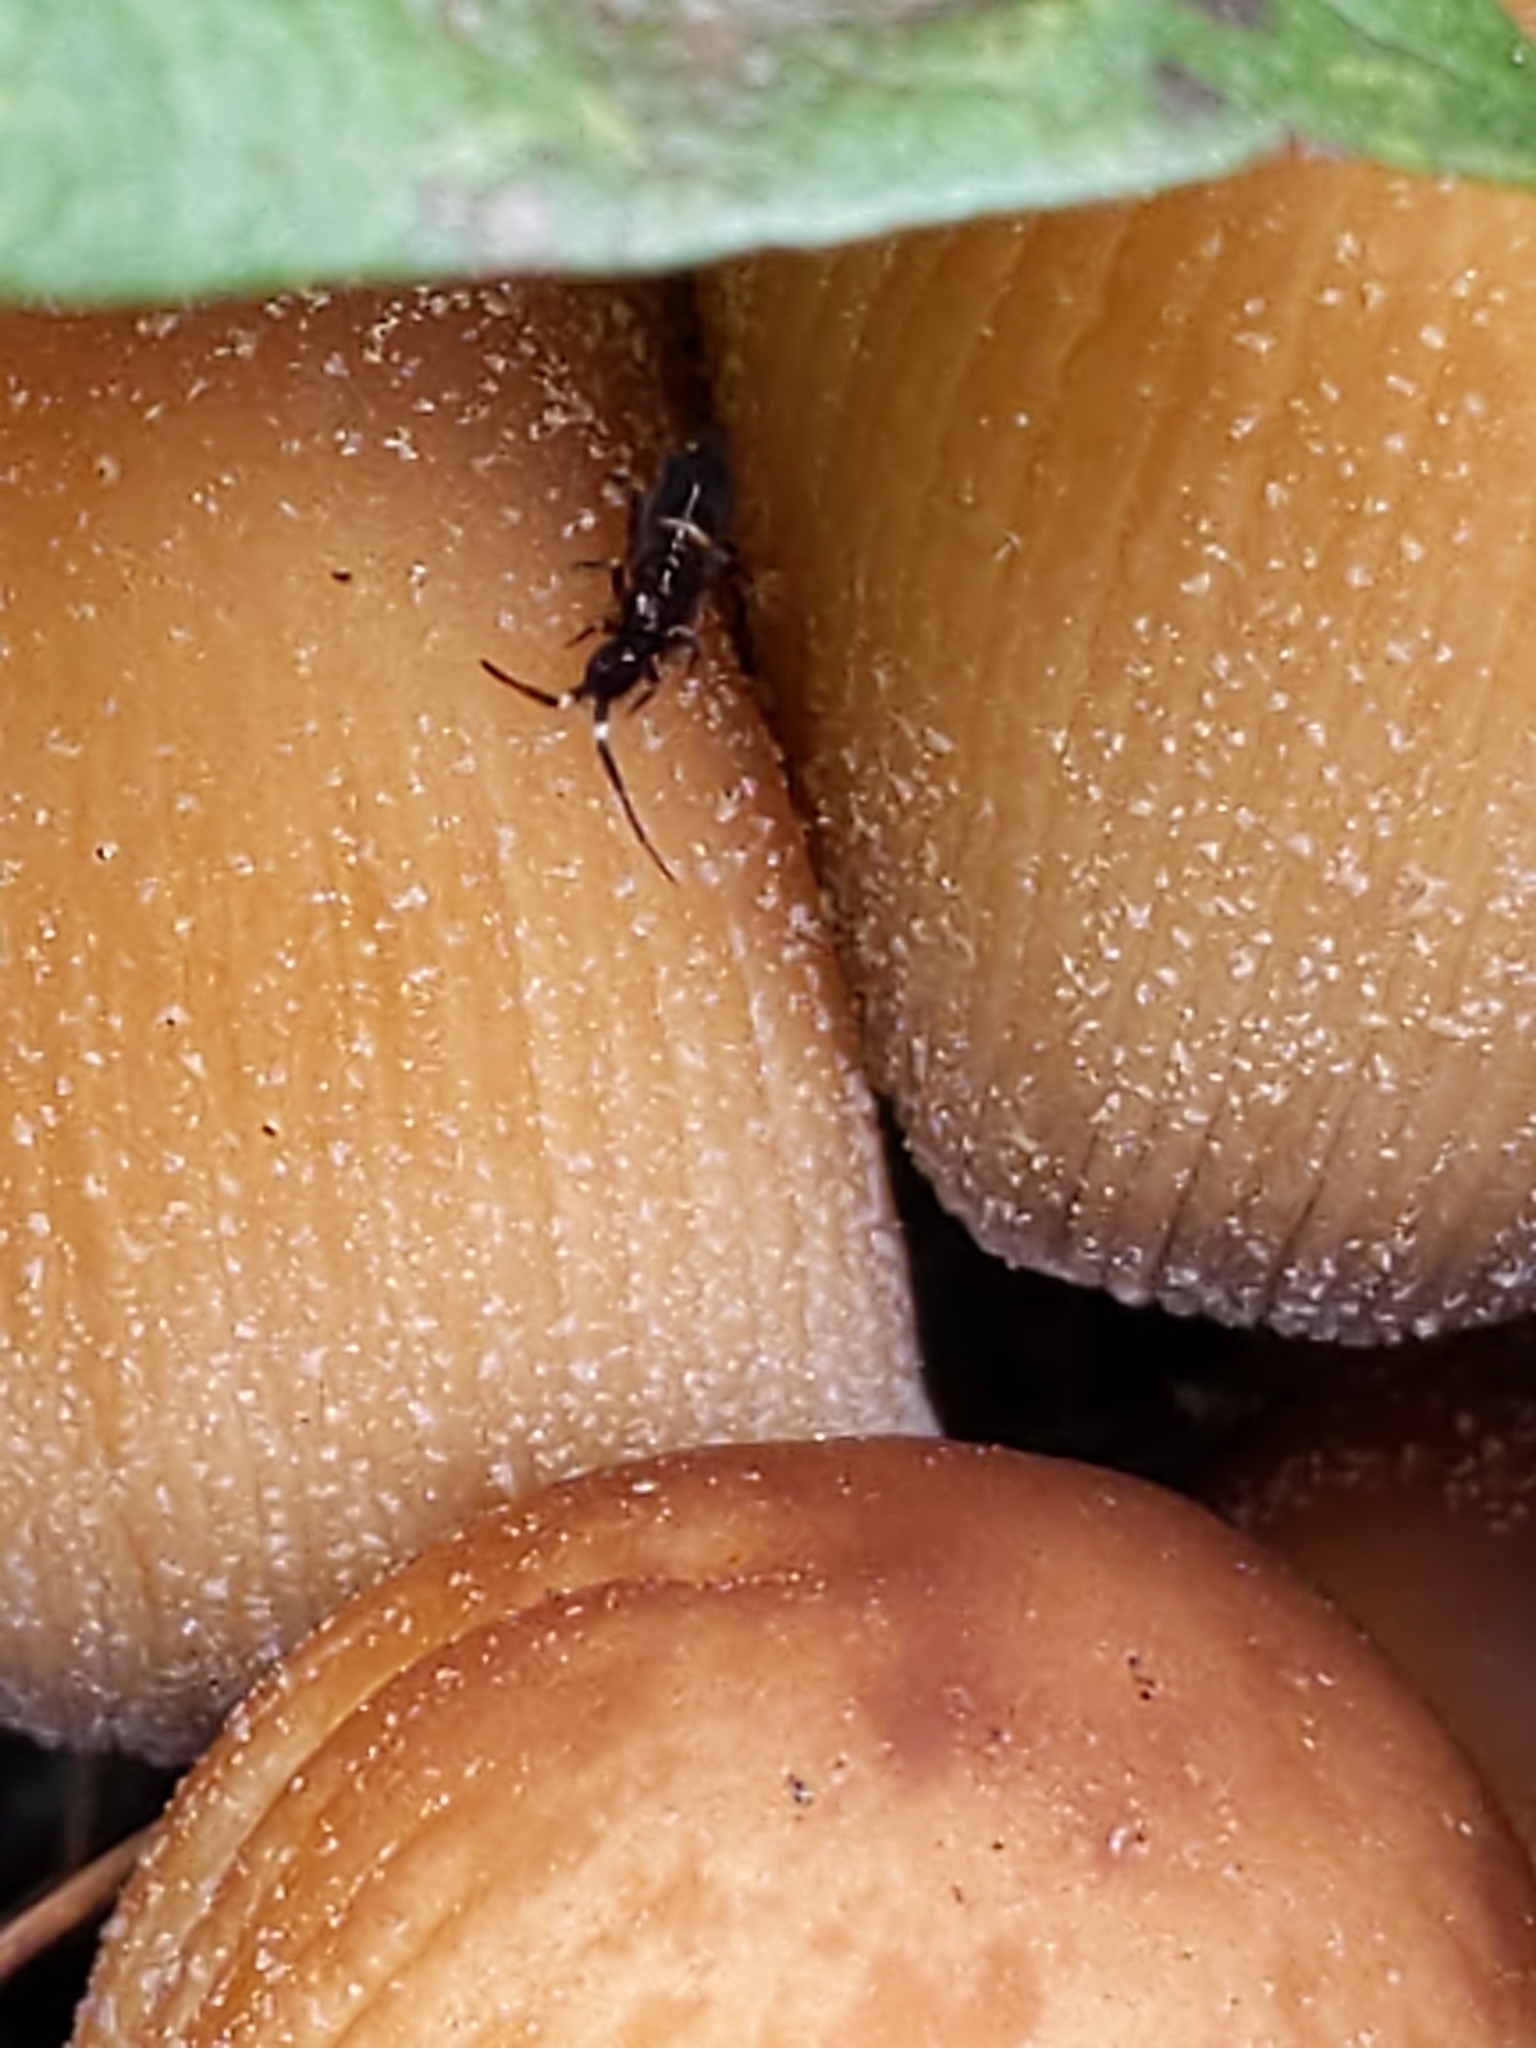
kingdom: Animalia
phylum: Arthropoda
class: Collembola
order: Entomobryomorpha
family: Orchesellidae
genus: Orchesella
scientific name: Orchesella cincta
